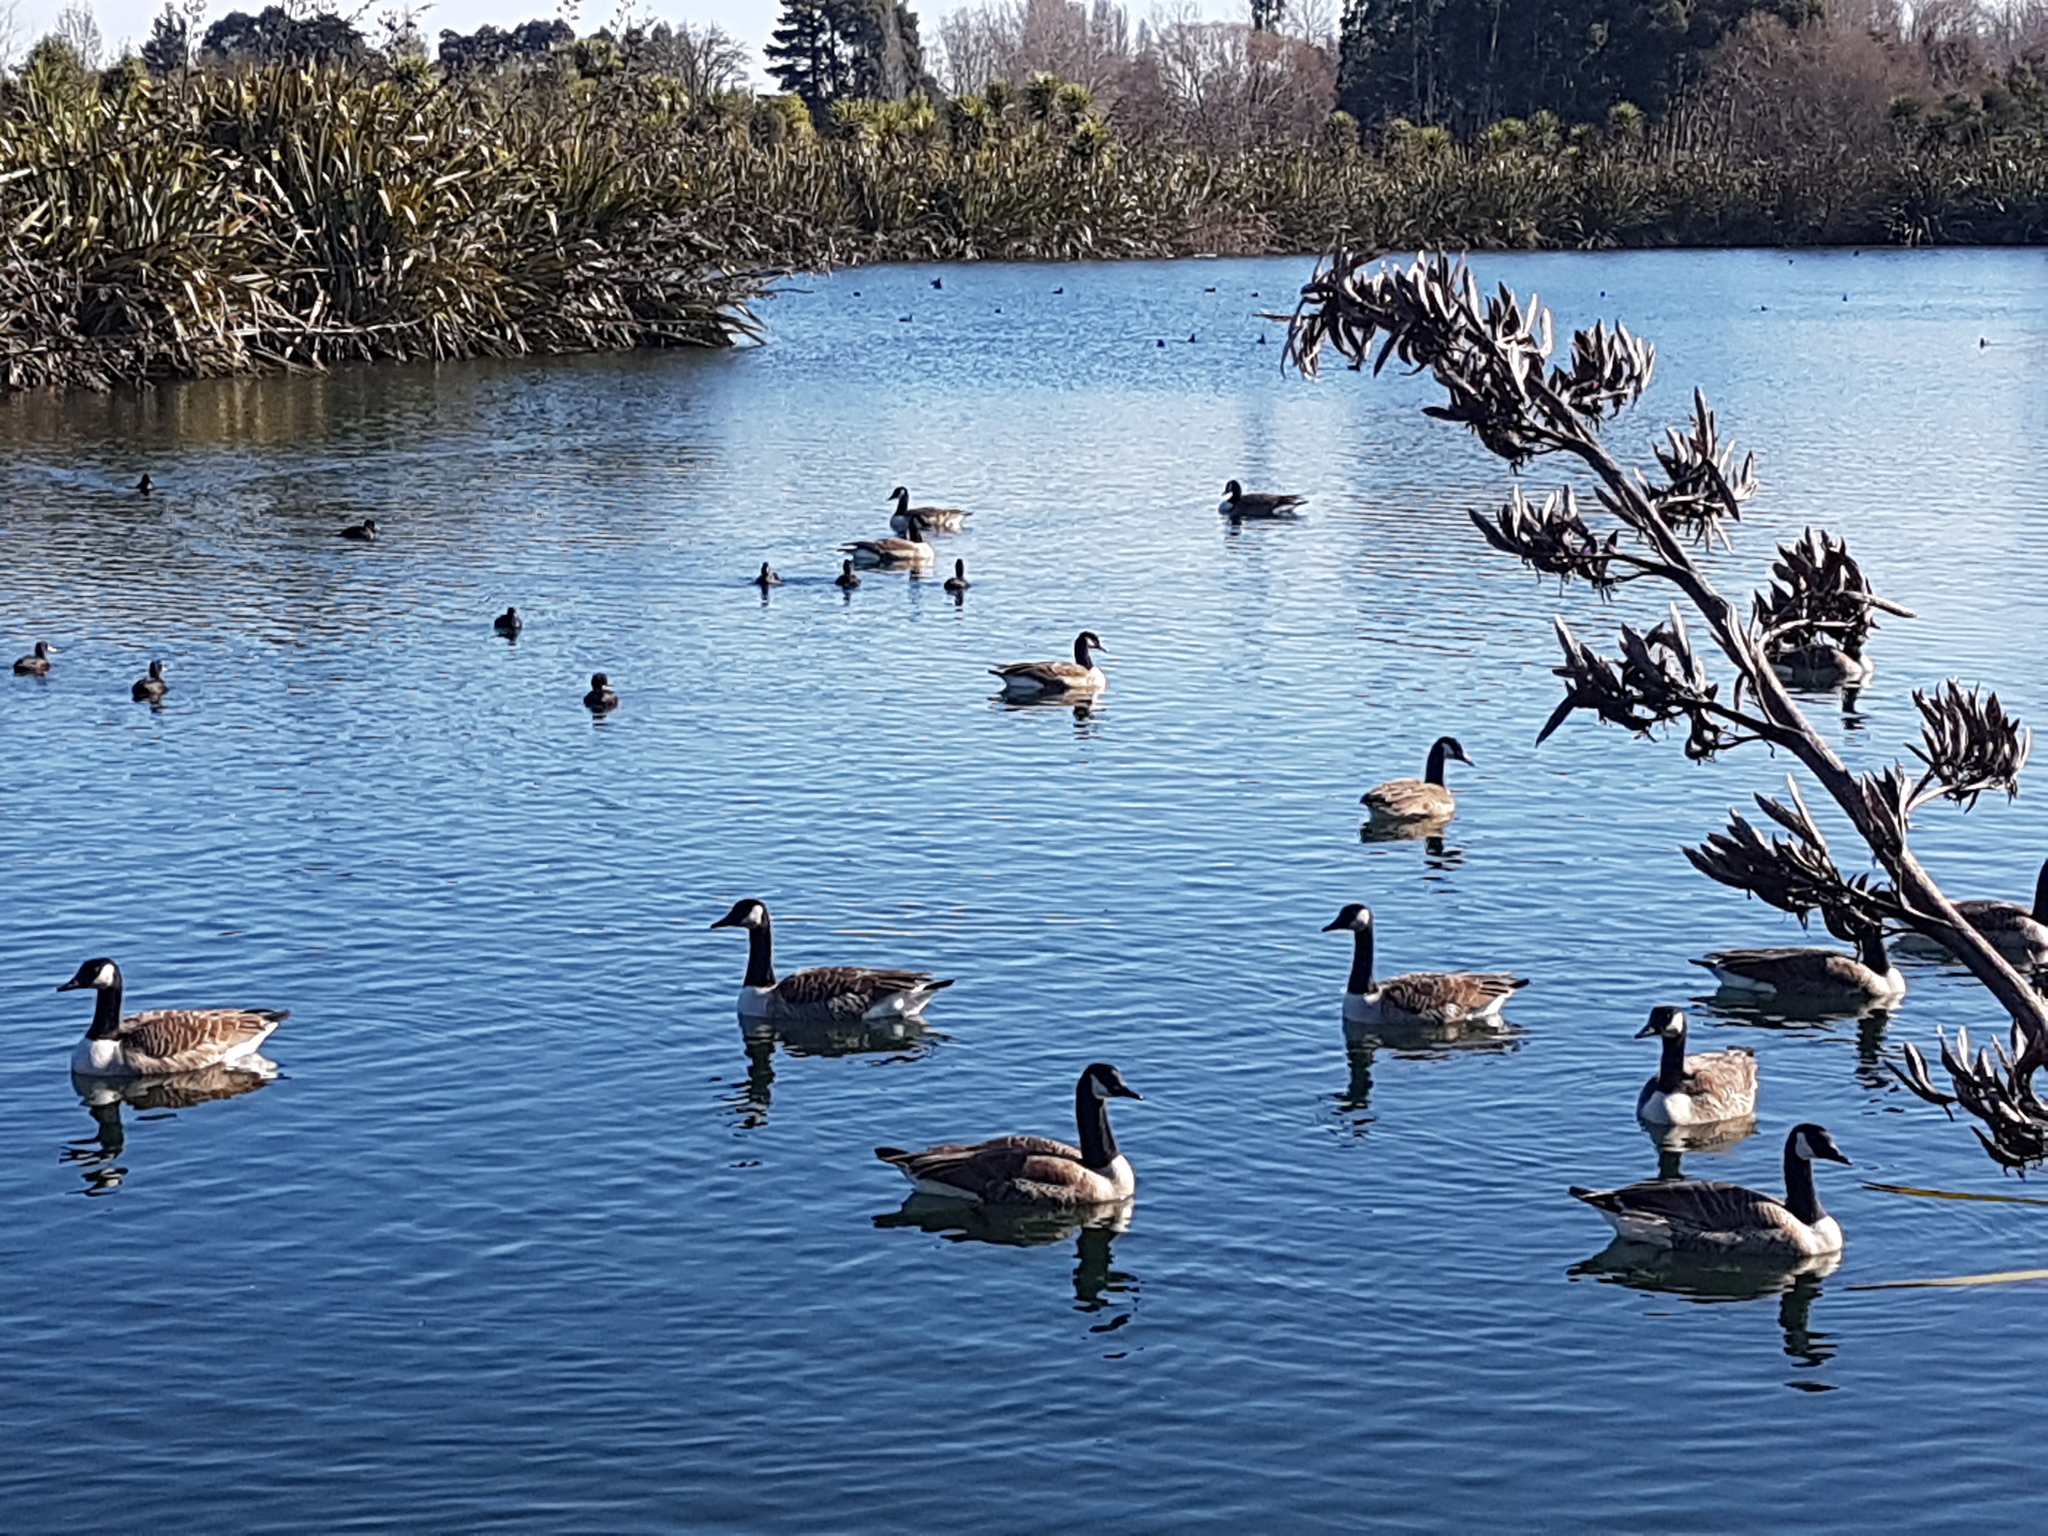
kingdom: Animalia
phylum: Chordata
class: Aves
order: Anseriformes
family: Anatidae
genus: Branta
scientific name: Branta canadensis
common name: Canada goose
